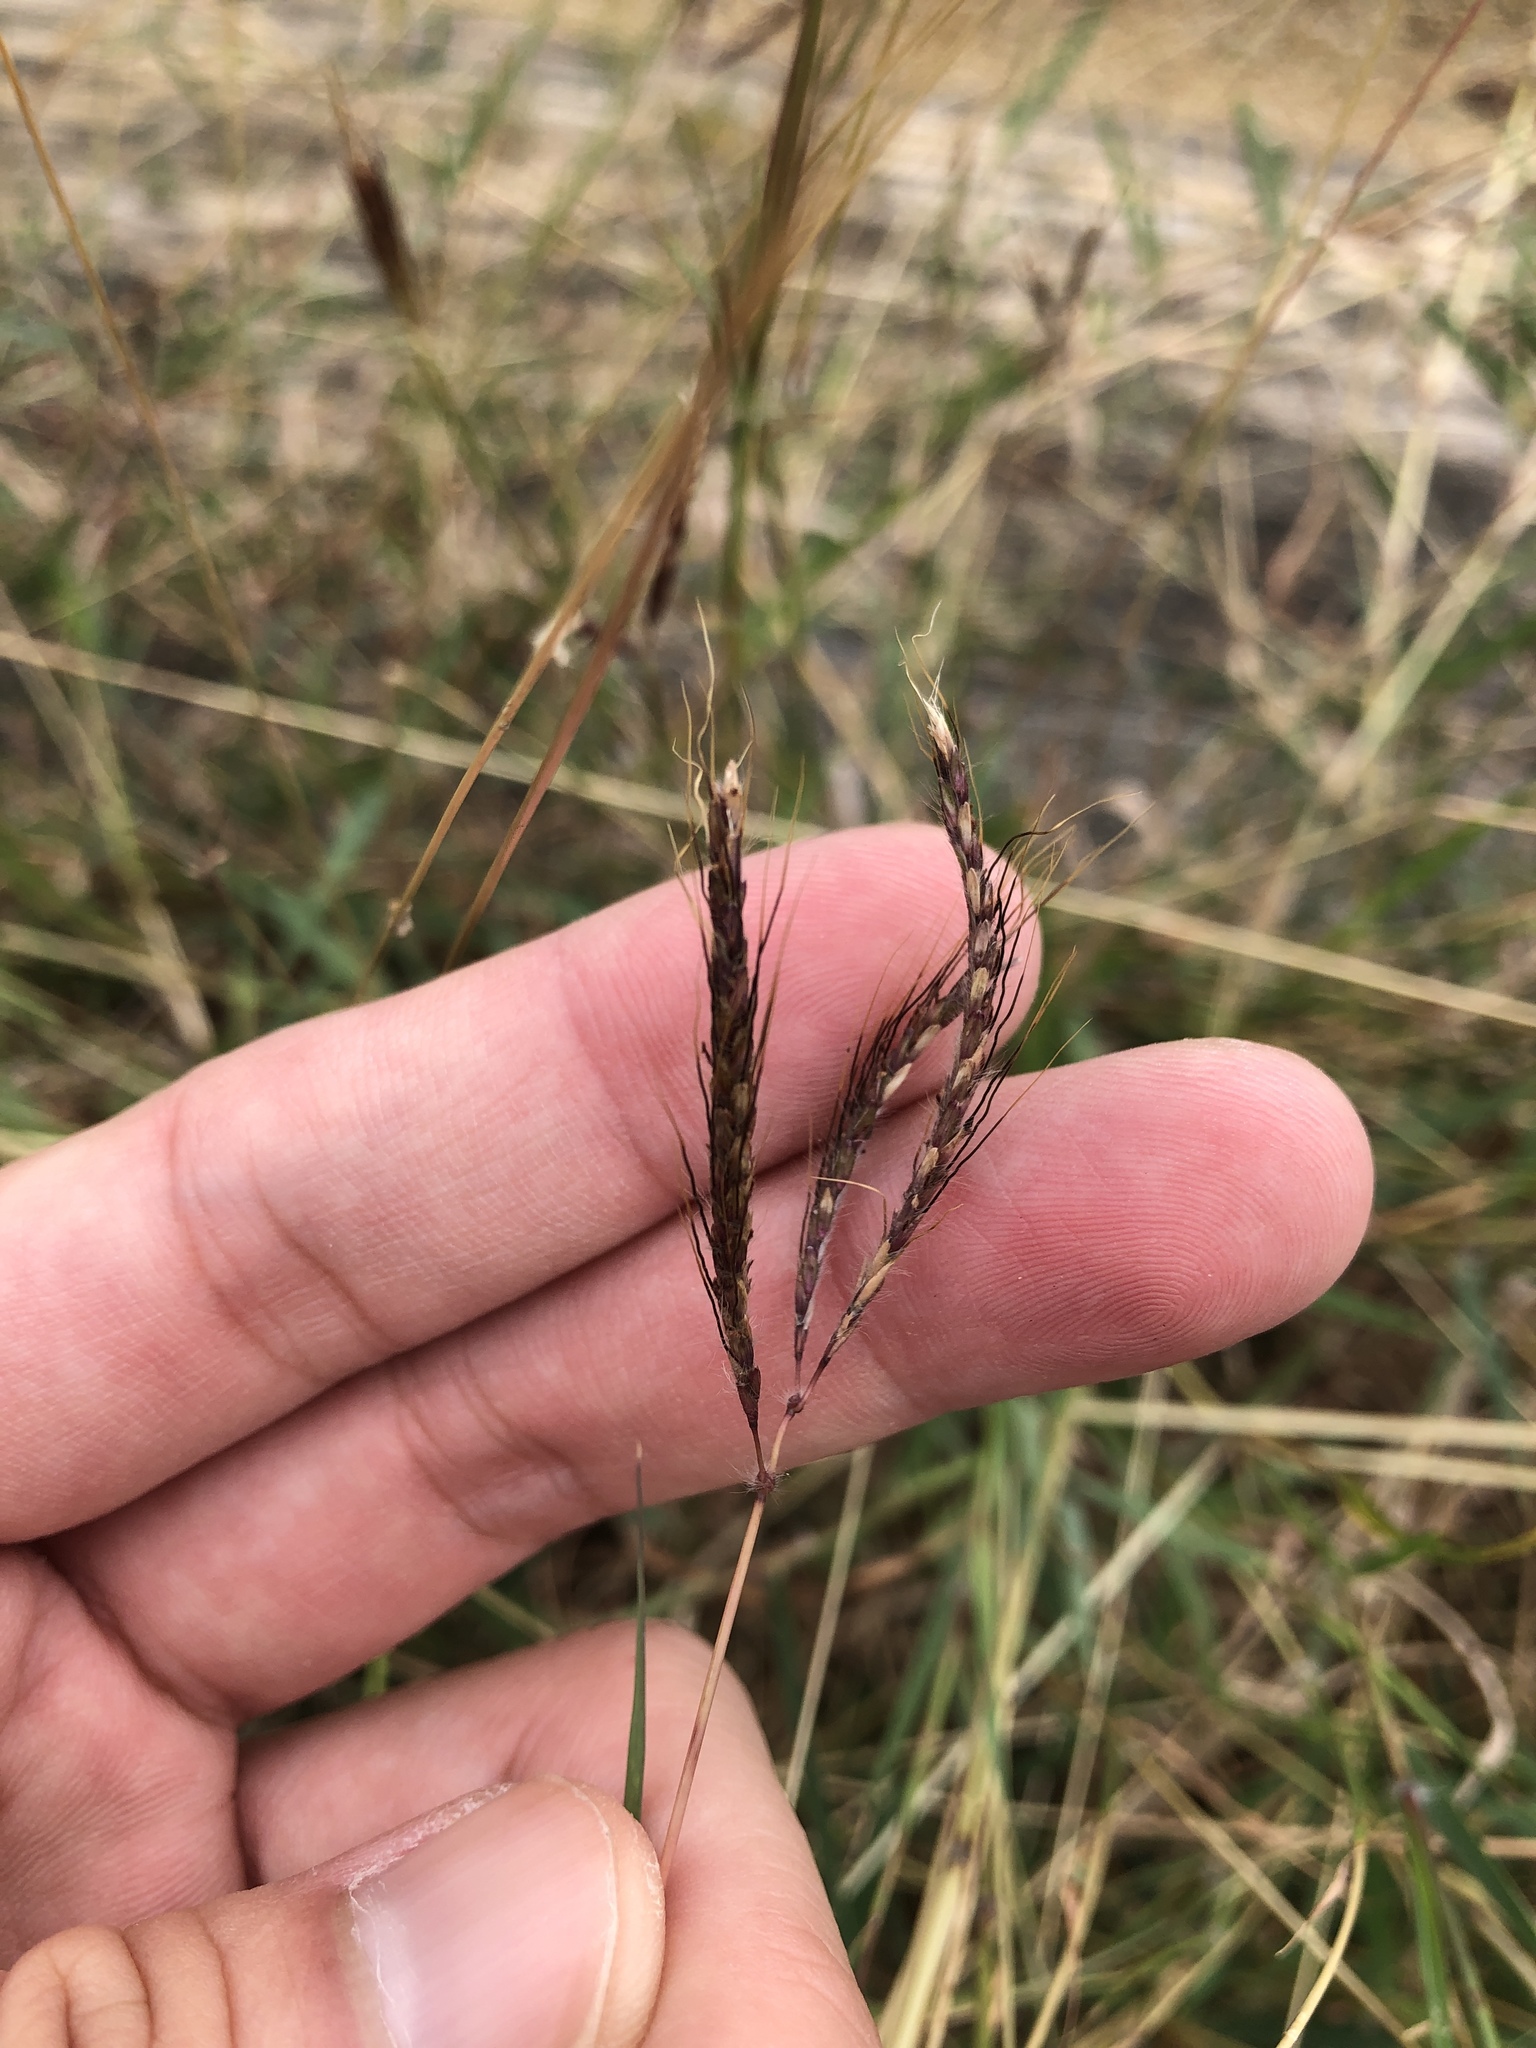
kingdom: Plantae
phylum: Tracheophyta
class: Liliopsida
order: Poales
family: Poaceae
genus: Dichanthium
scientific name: Dichanthium annulatum
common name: Kleberg's bluestem
